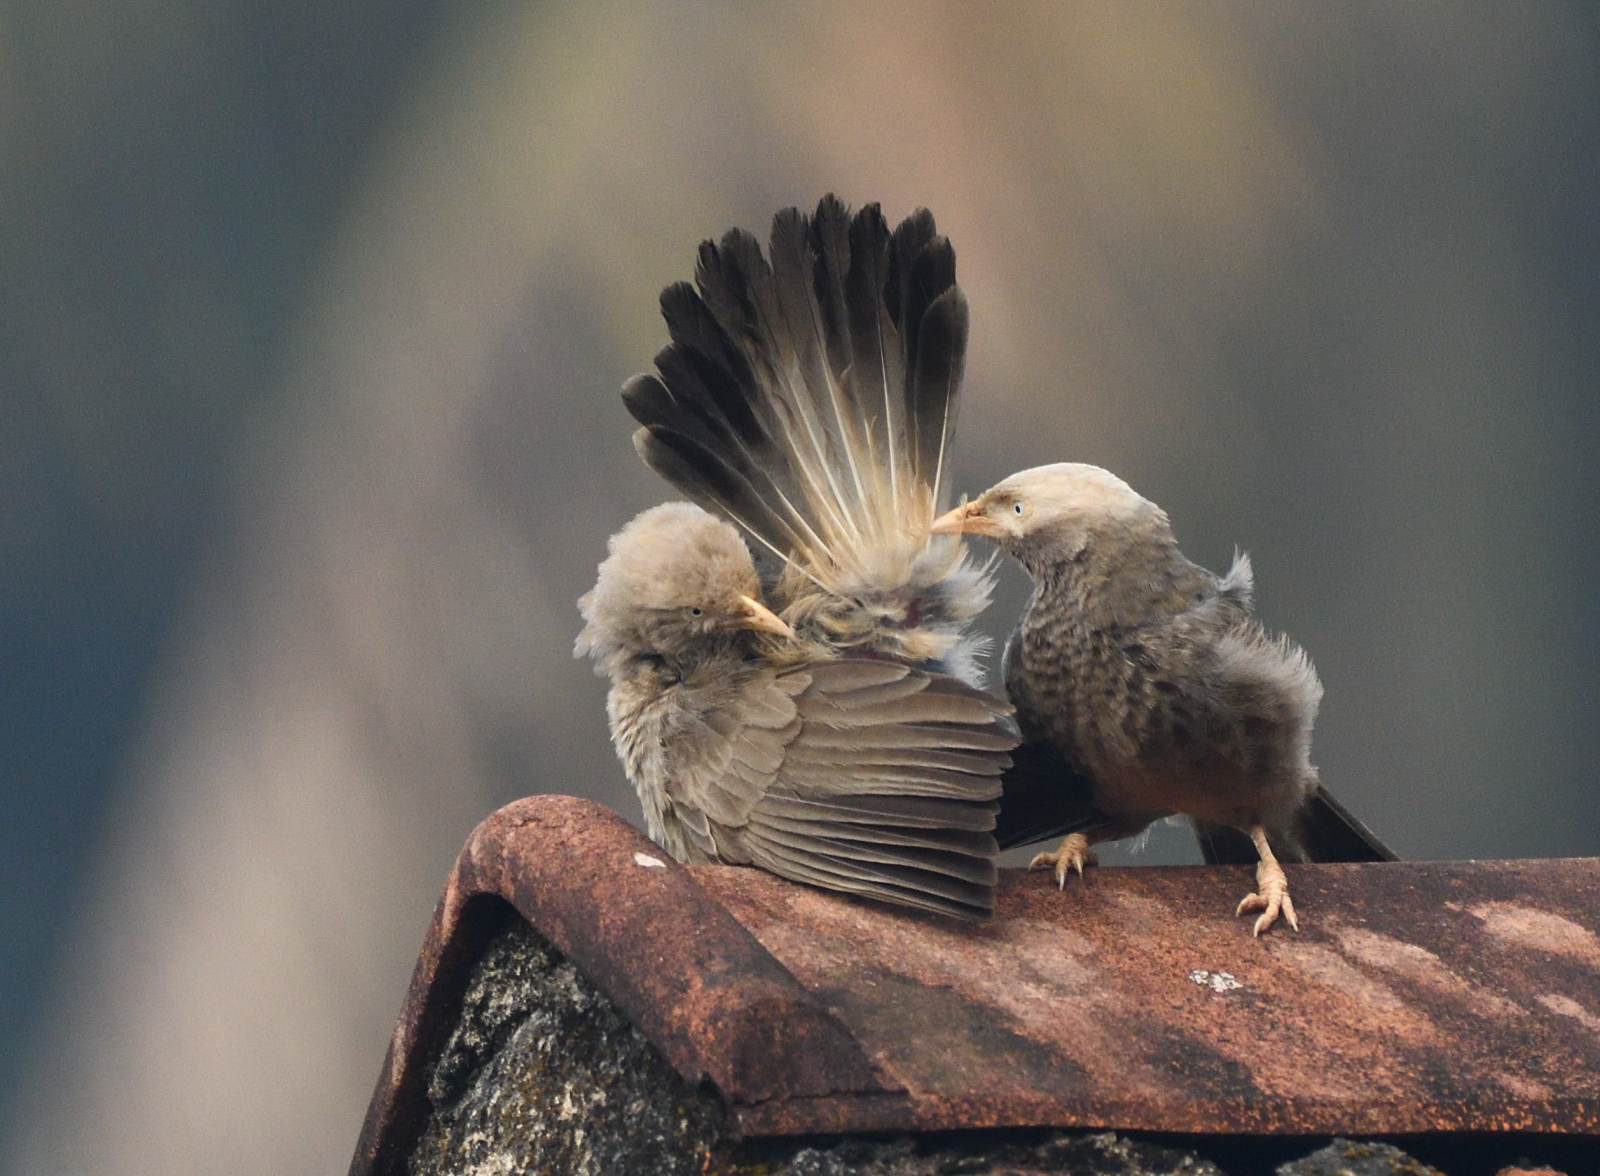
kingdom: Animalia
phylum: Chordata
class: Aves
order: Passeriformes
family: Leiothrichidae
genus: Turdoides
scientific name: Turdoides affinis
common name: Yellow-billed babbler
